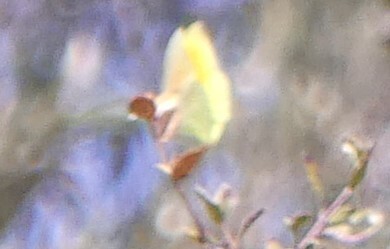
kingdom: Animalia
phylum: Arthropoda
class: Insecta
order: Lepidoptera
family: Pieridae
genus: Gonepteryx
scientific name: Gonepteryx cleopatra
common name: Cleopatra
